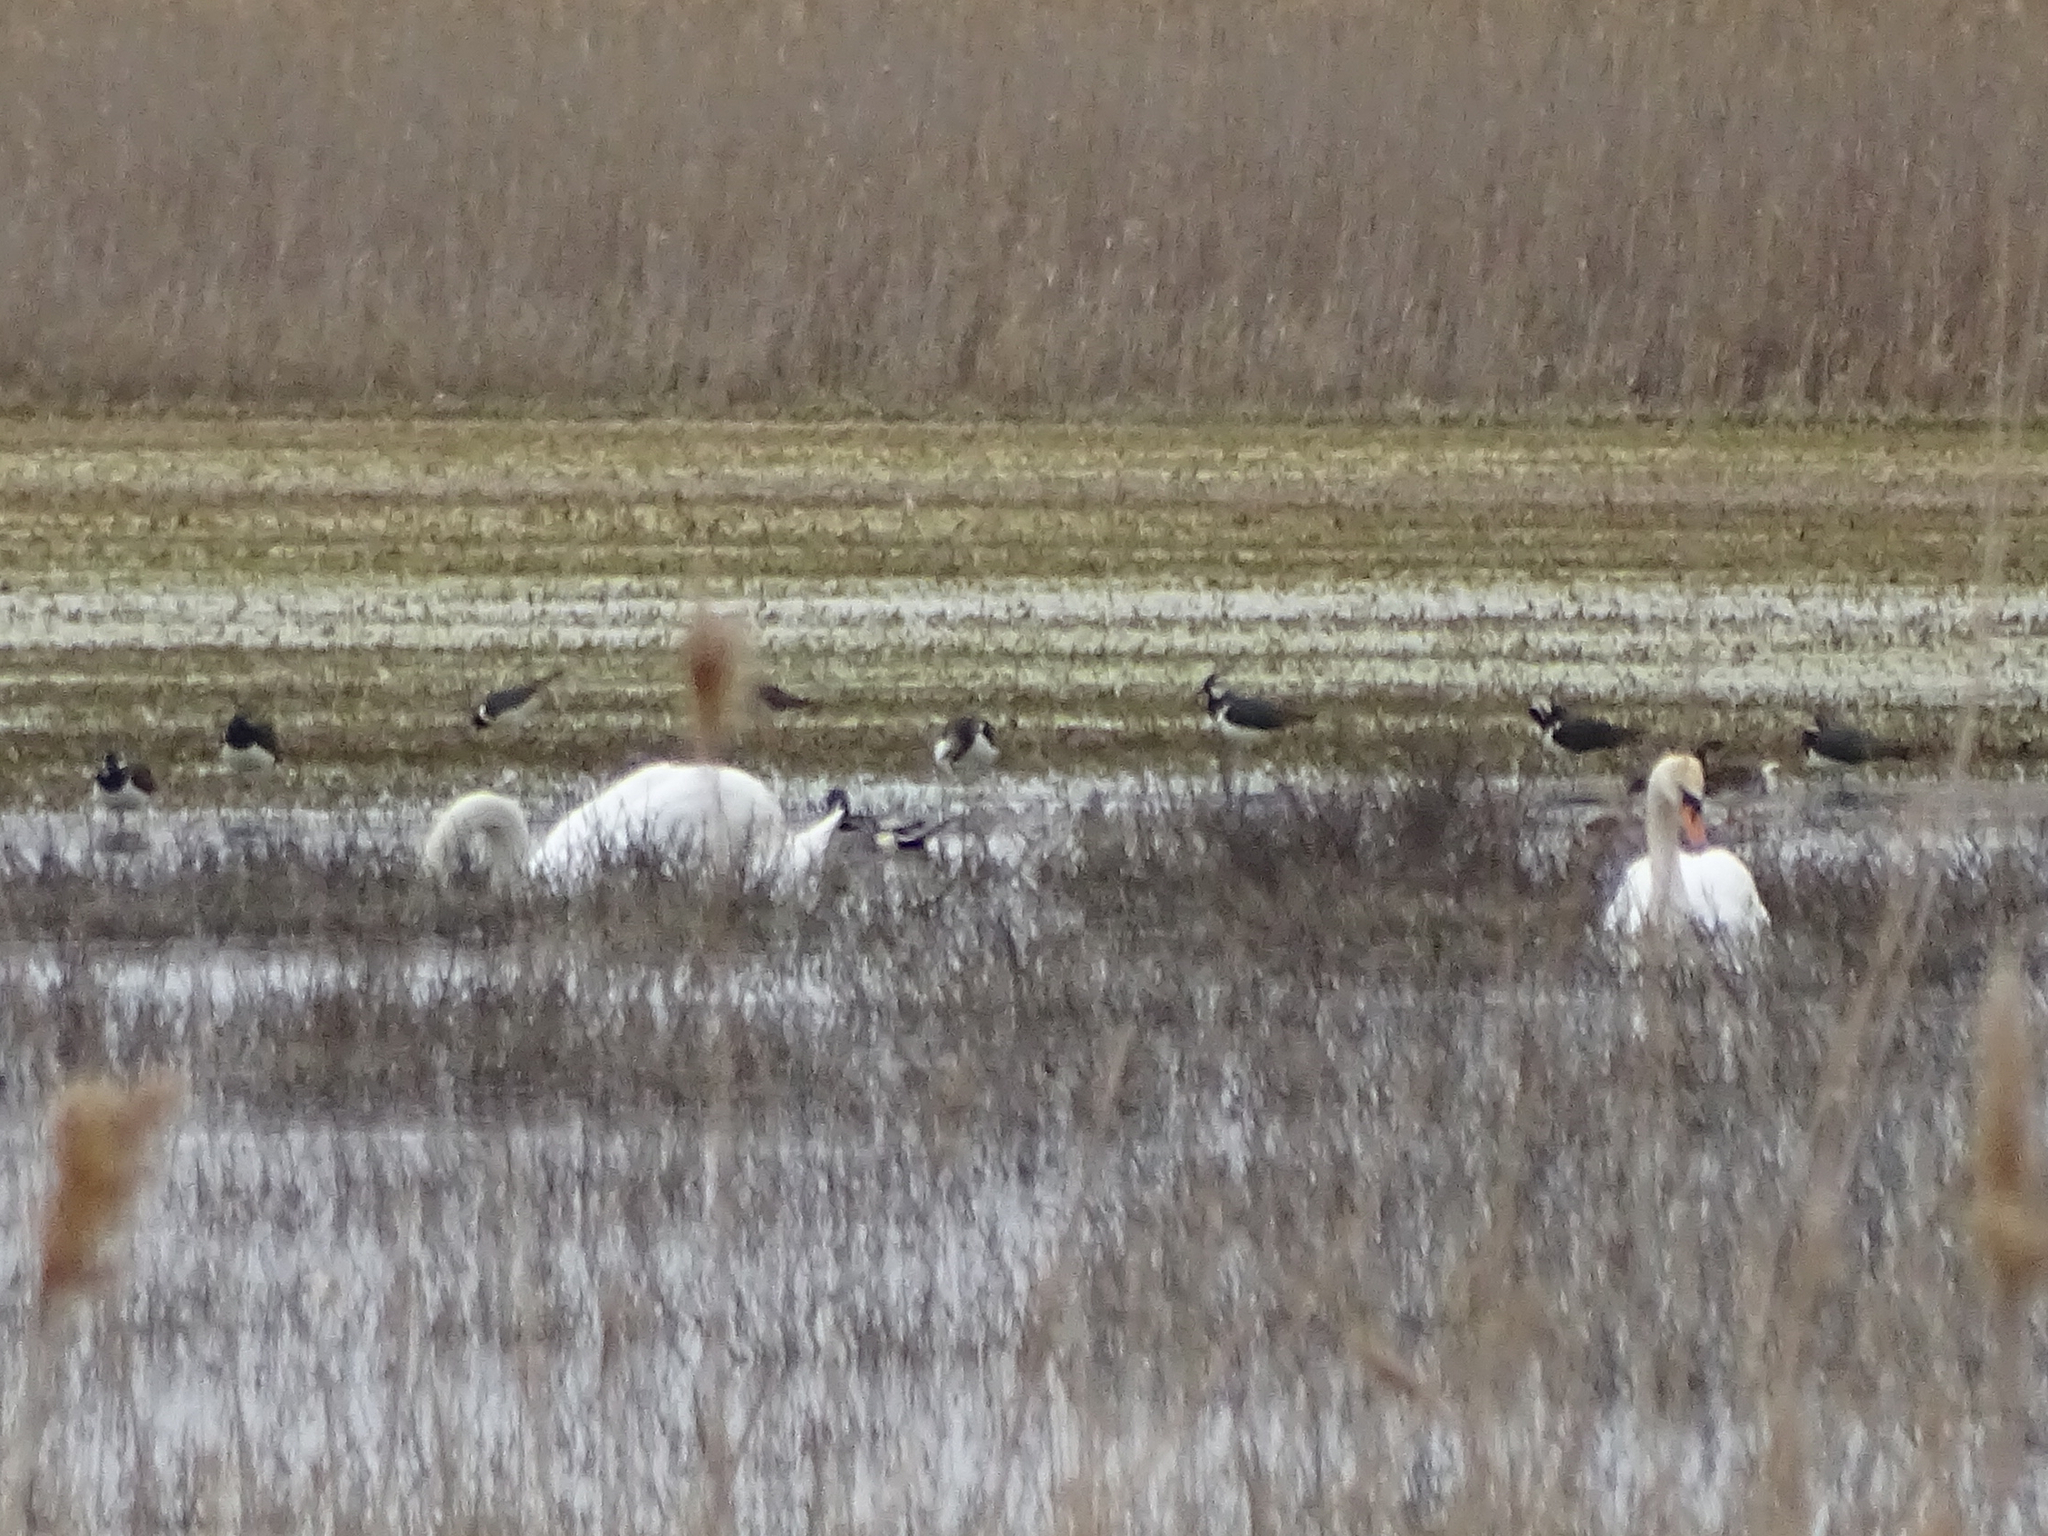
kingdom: Animalia
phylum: Chordata
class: Aves
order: Charadriiformes
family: Charadriidae
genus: Vanellus
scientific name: Vanellus vanellus
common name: Northern lapwing
